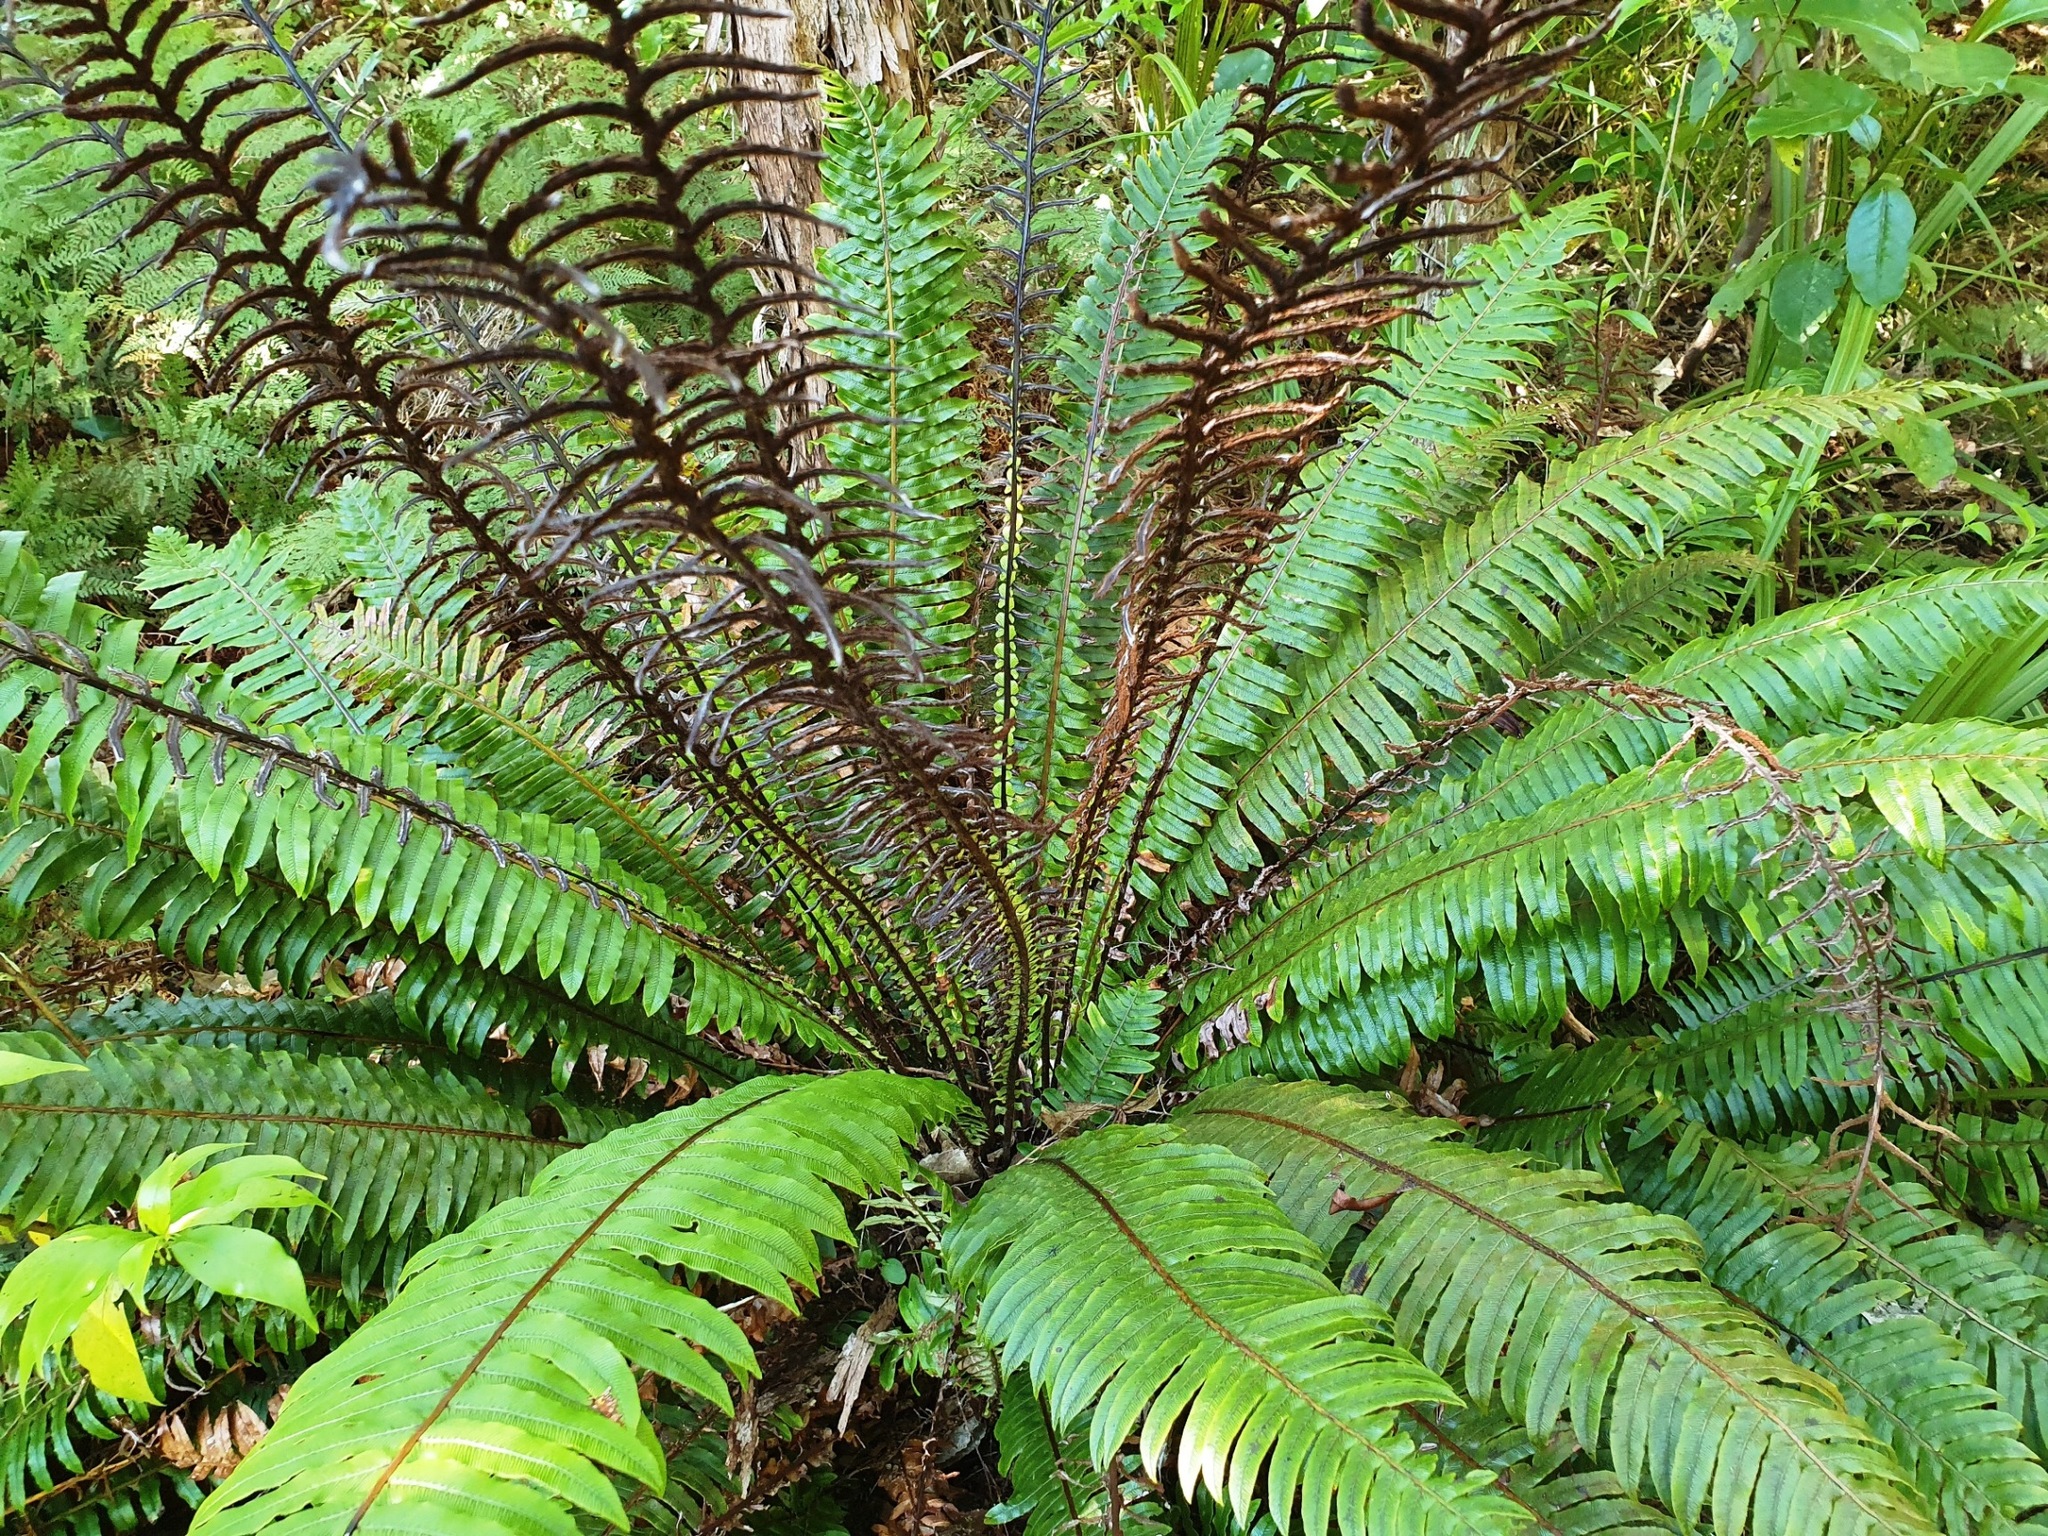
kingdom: Plantae
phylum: Tracheophyta
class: Polypodiopsida
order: Polypodiales
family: Blechnaceae
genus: Lomaria
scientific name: Lomaria discolor
